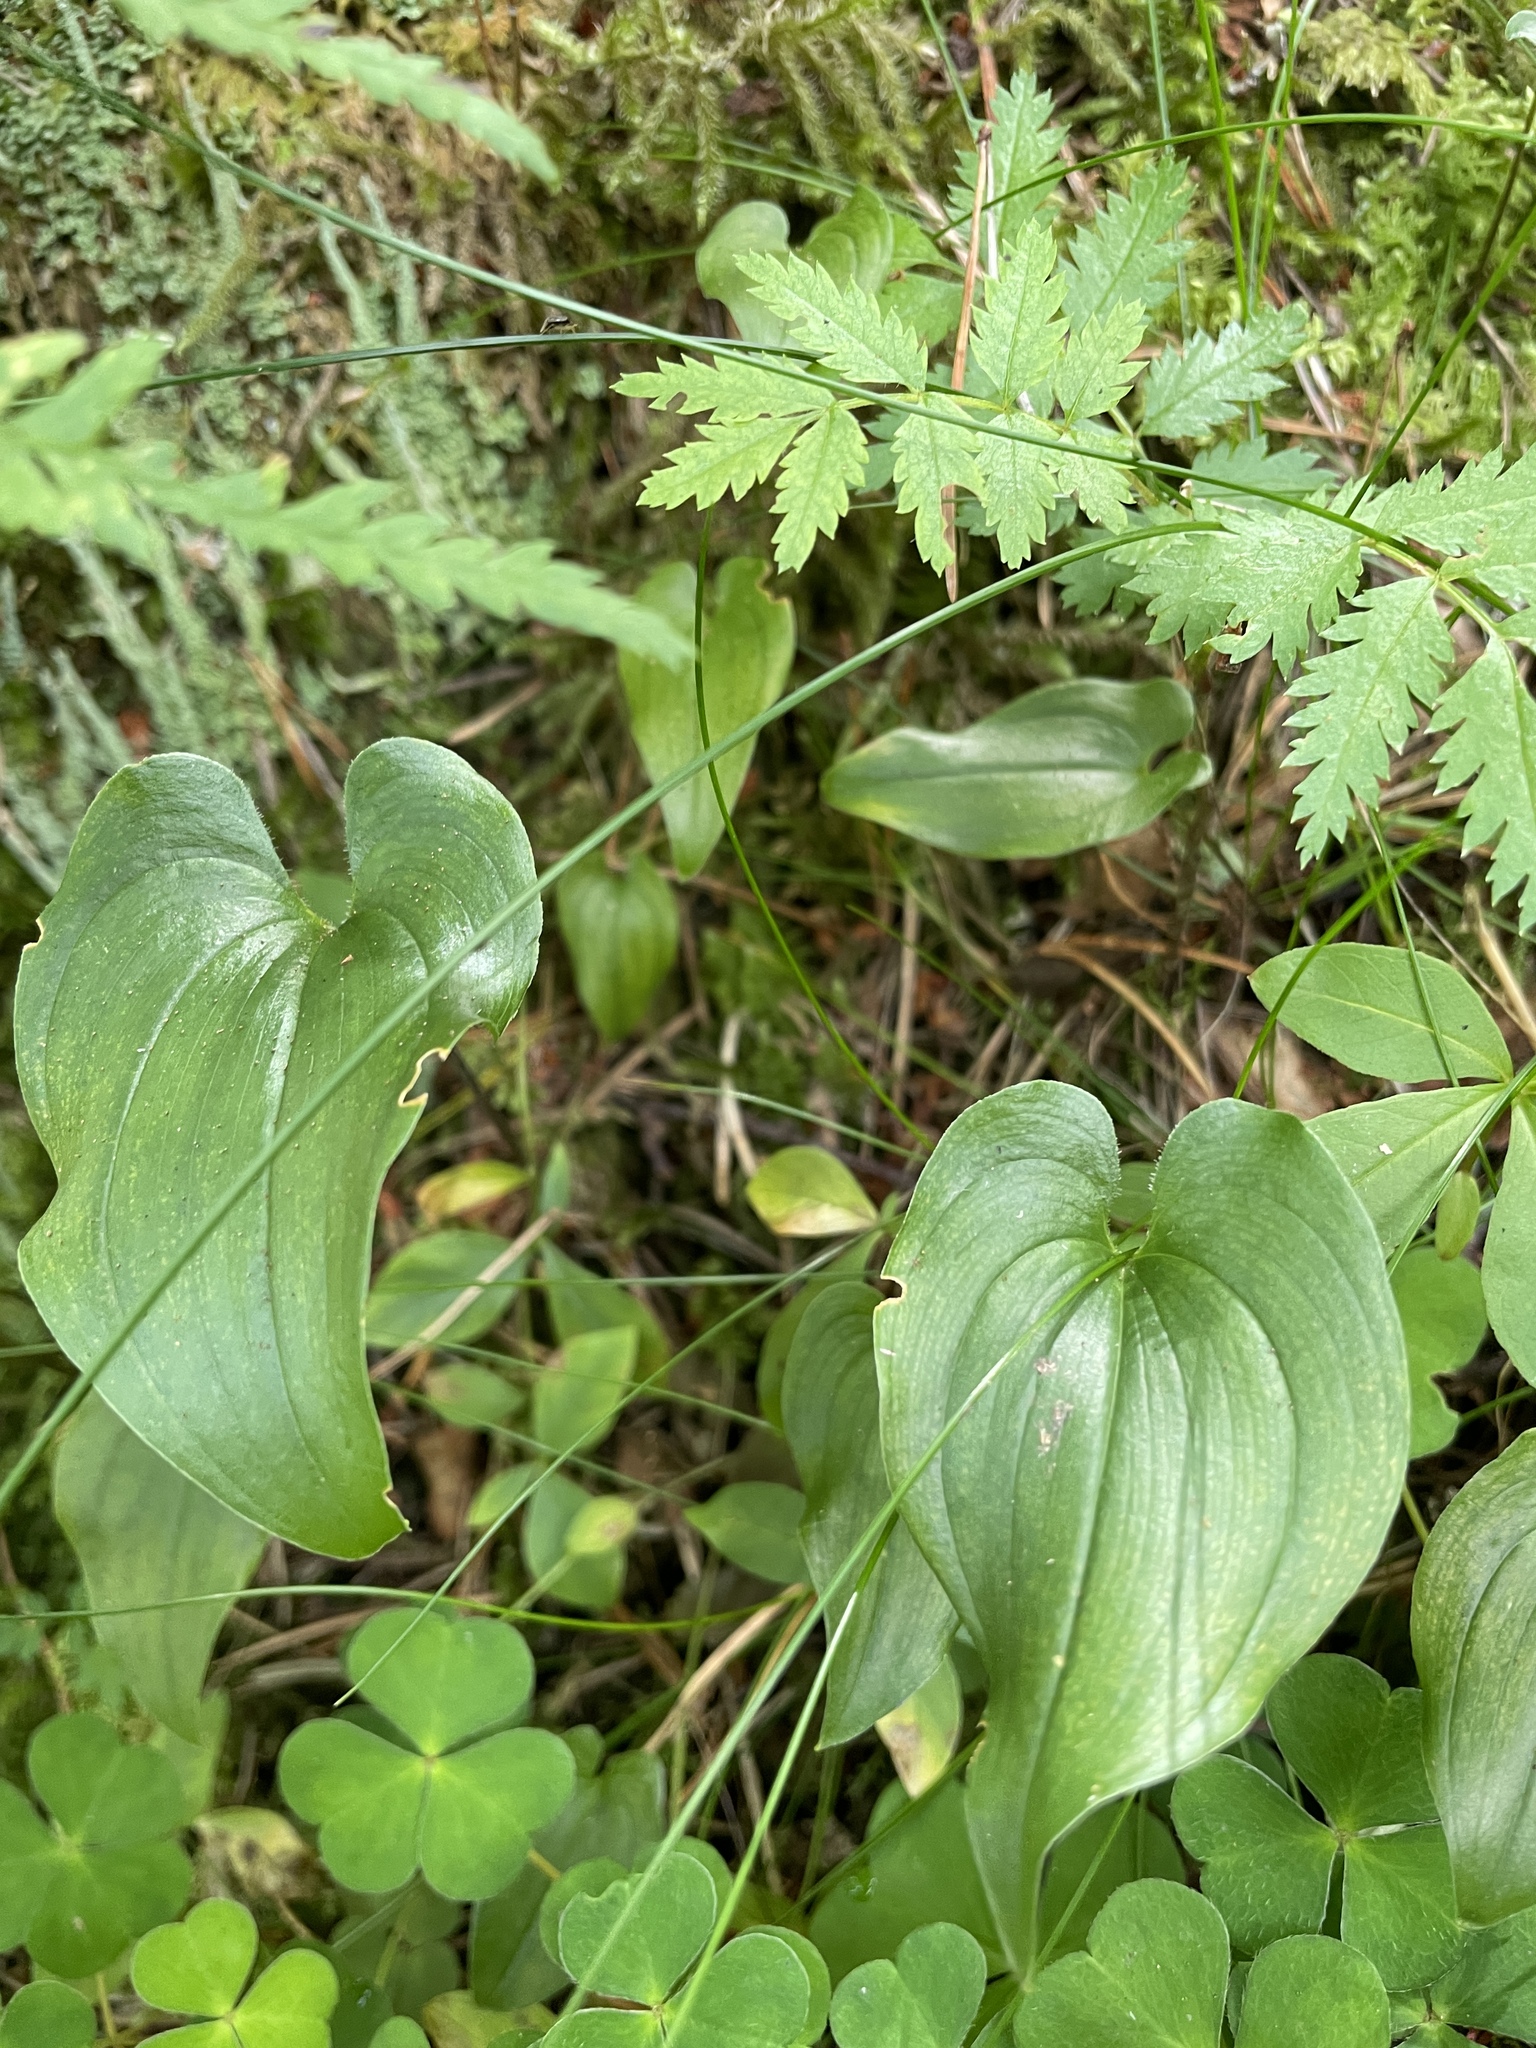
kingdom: Plantae
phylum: Tracheophyta
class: Liliopsida
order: Asparagales
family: Asparagaceae
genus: Maianthemum
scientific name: Maianthemum bifolium
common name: May lily
